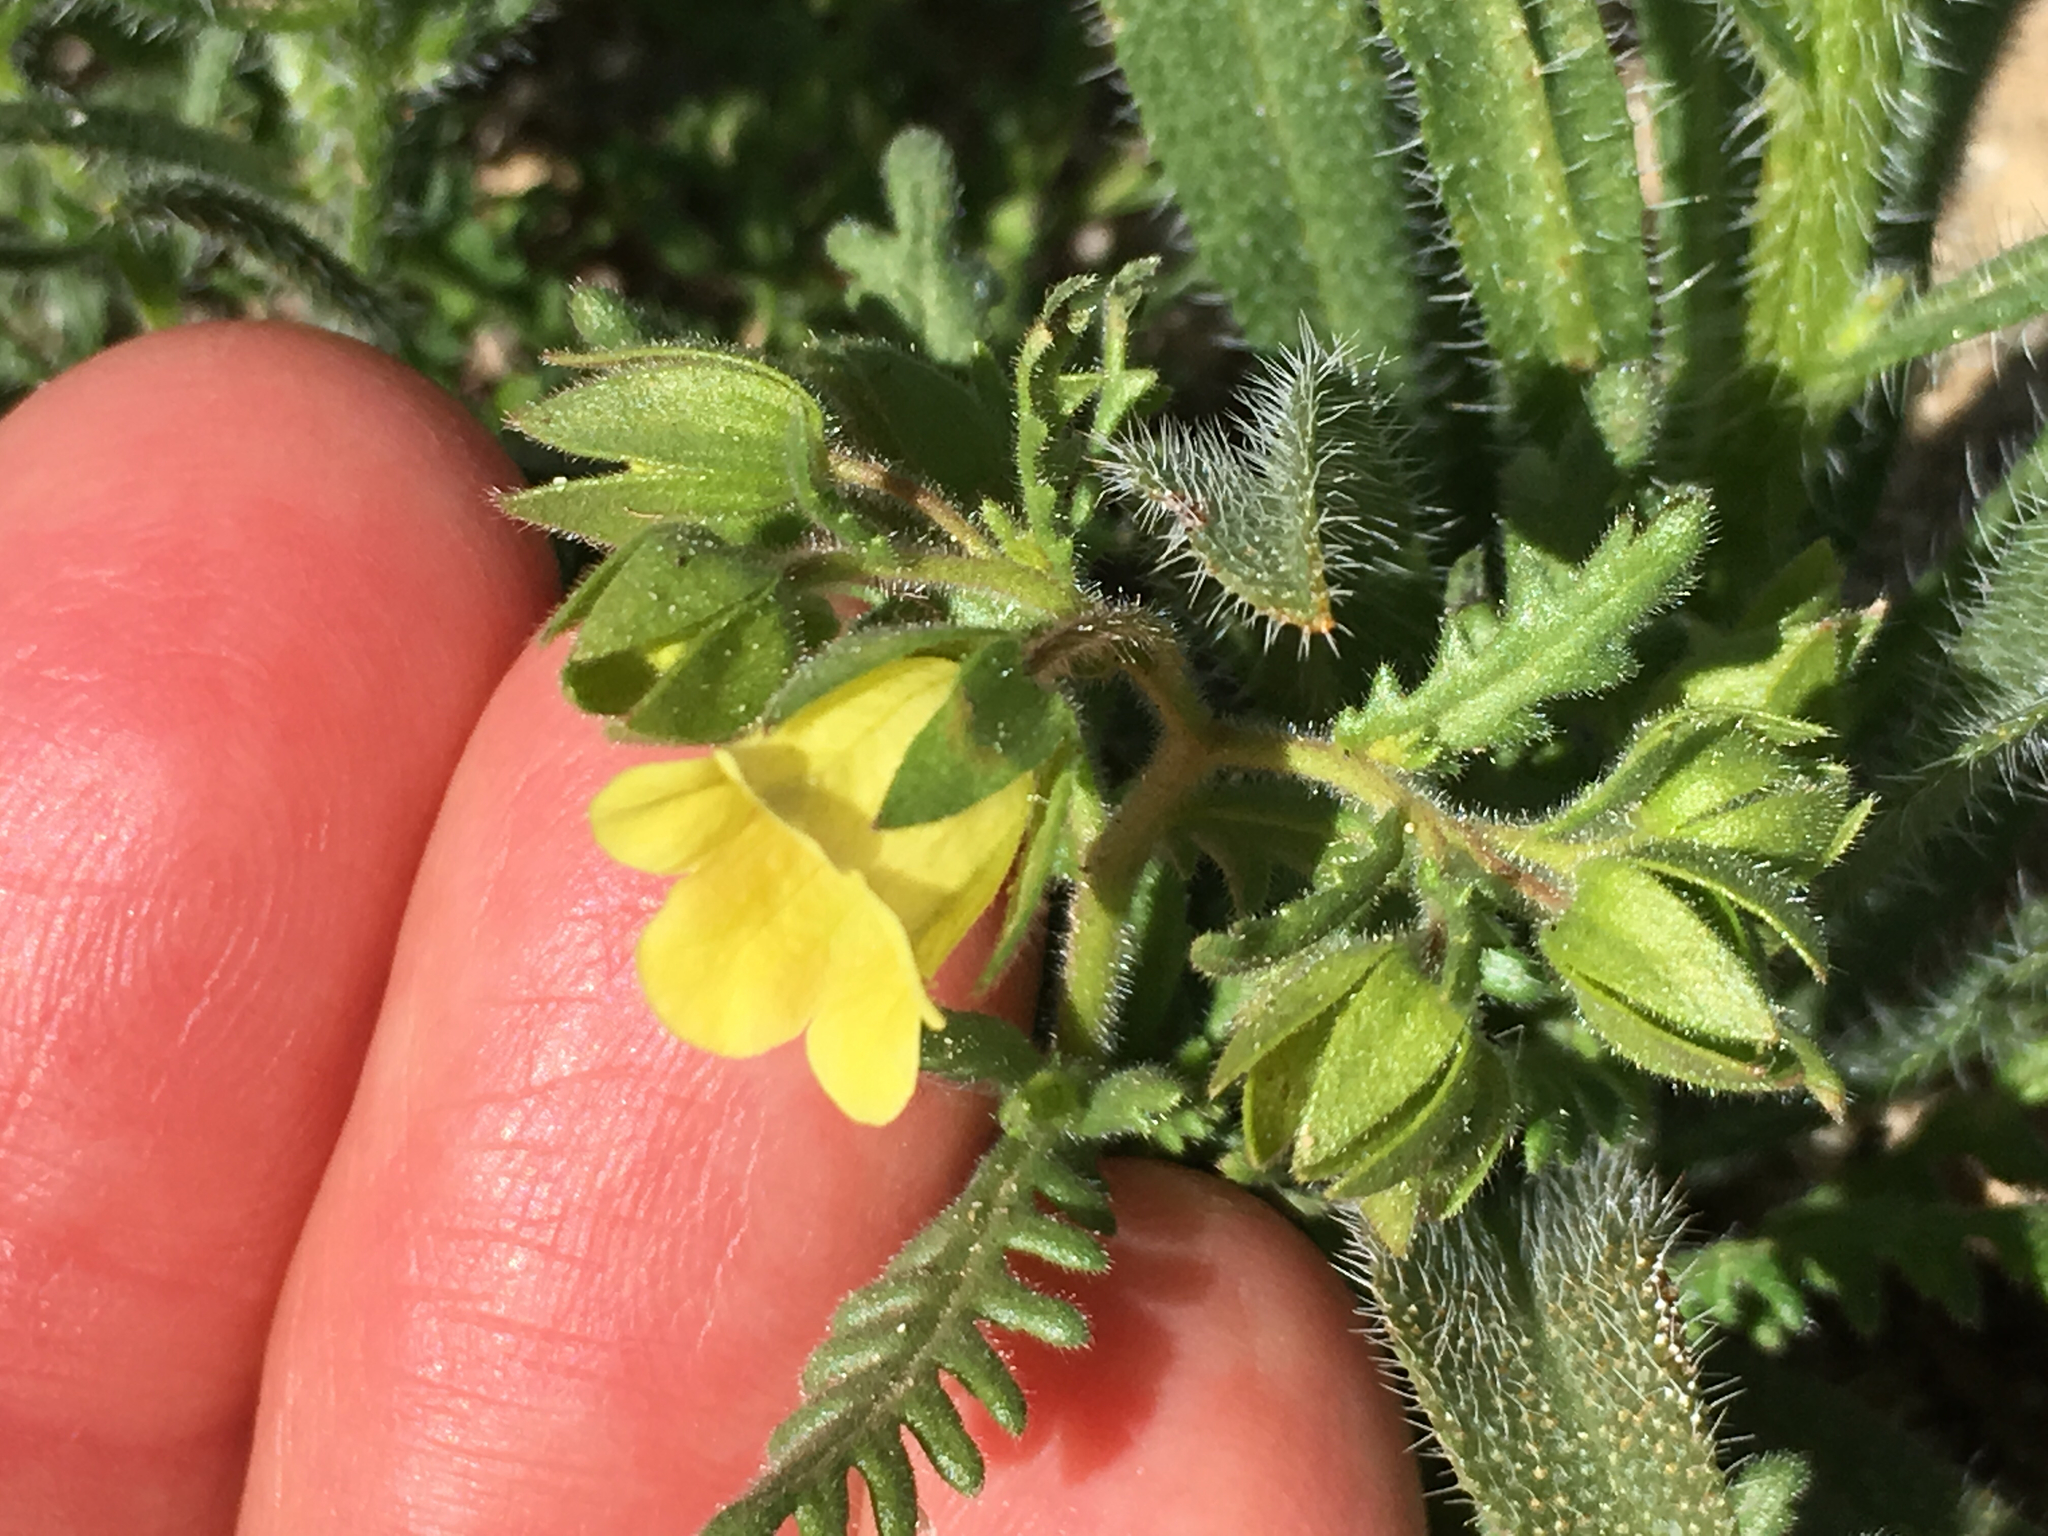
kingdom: Plantae
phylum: Tracheophyta
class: Magnoliopsida
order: Boraginales
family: Hydrophyllaceae
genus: Emmenanthe
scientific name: Emmenanthe penduliflora
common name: Whispering-bells
